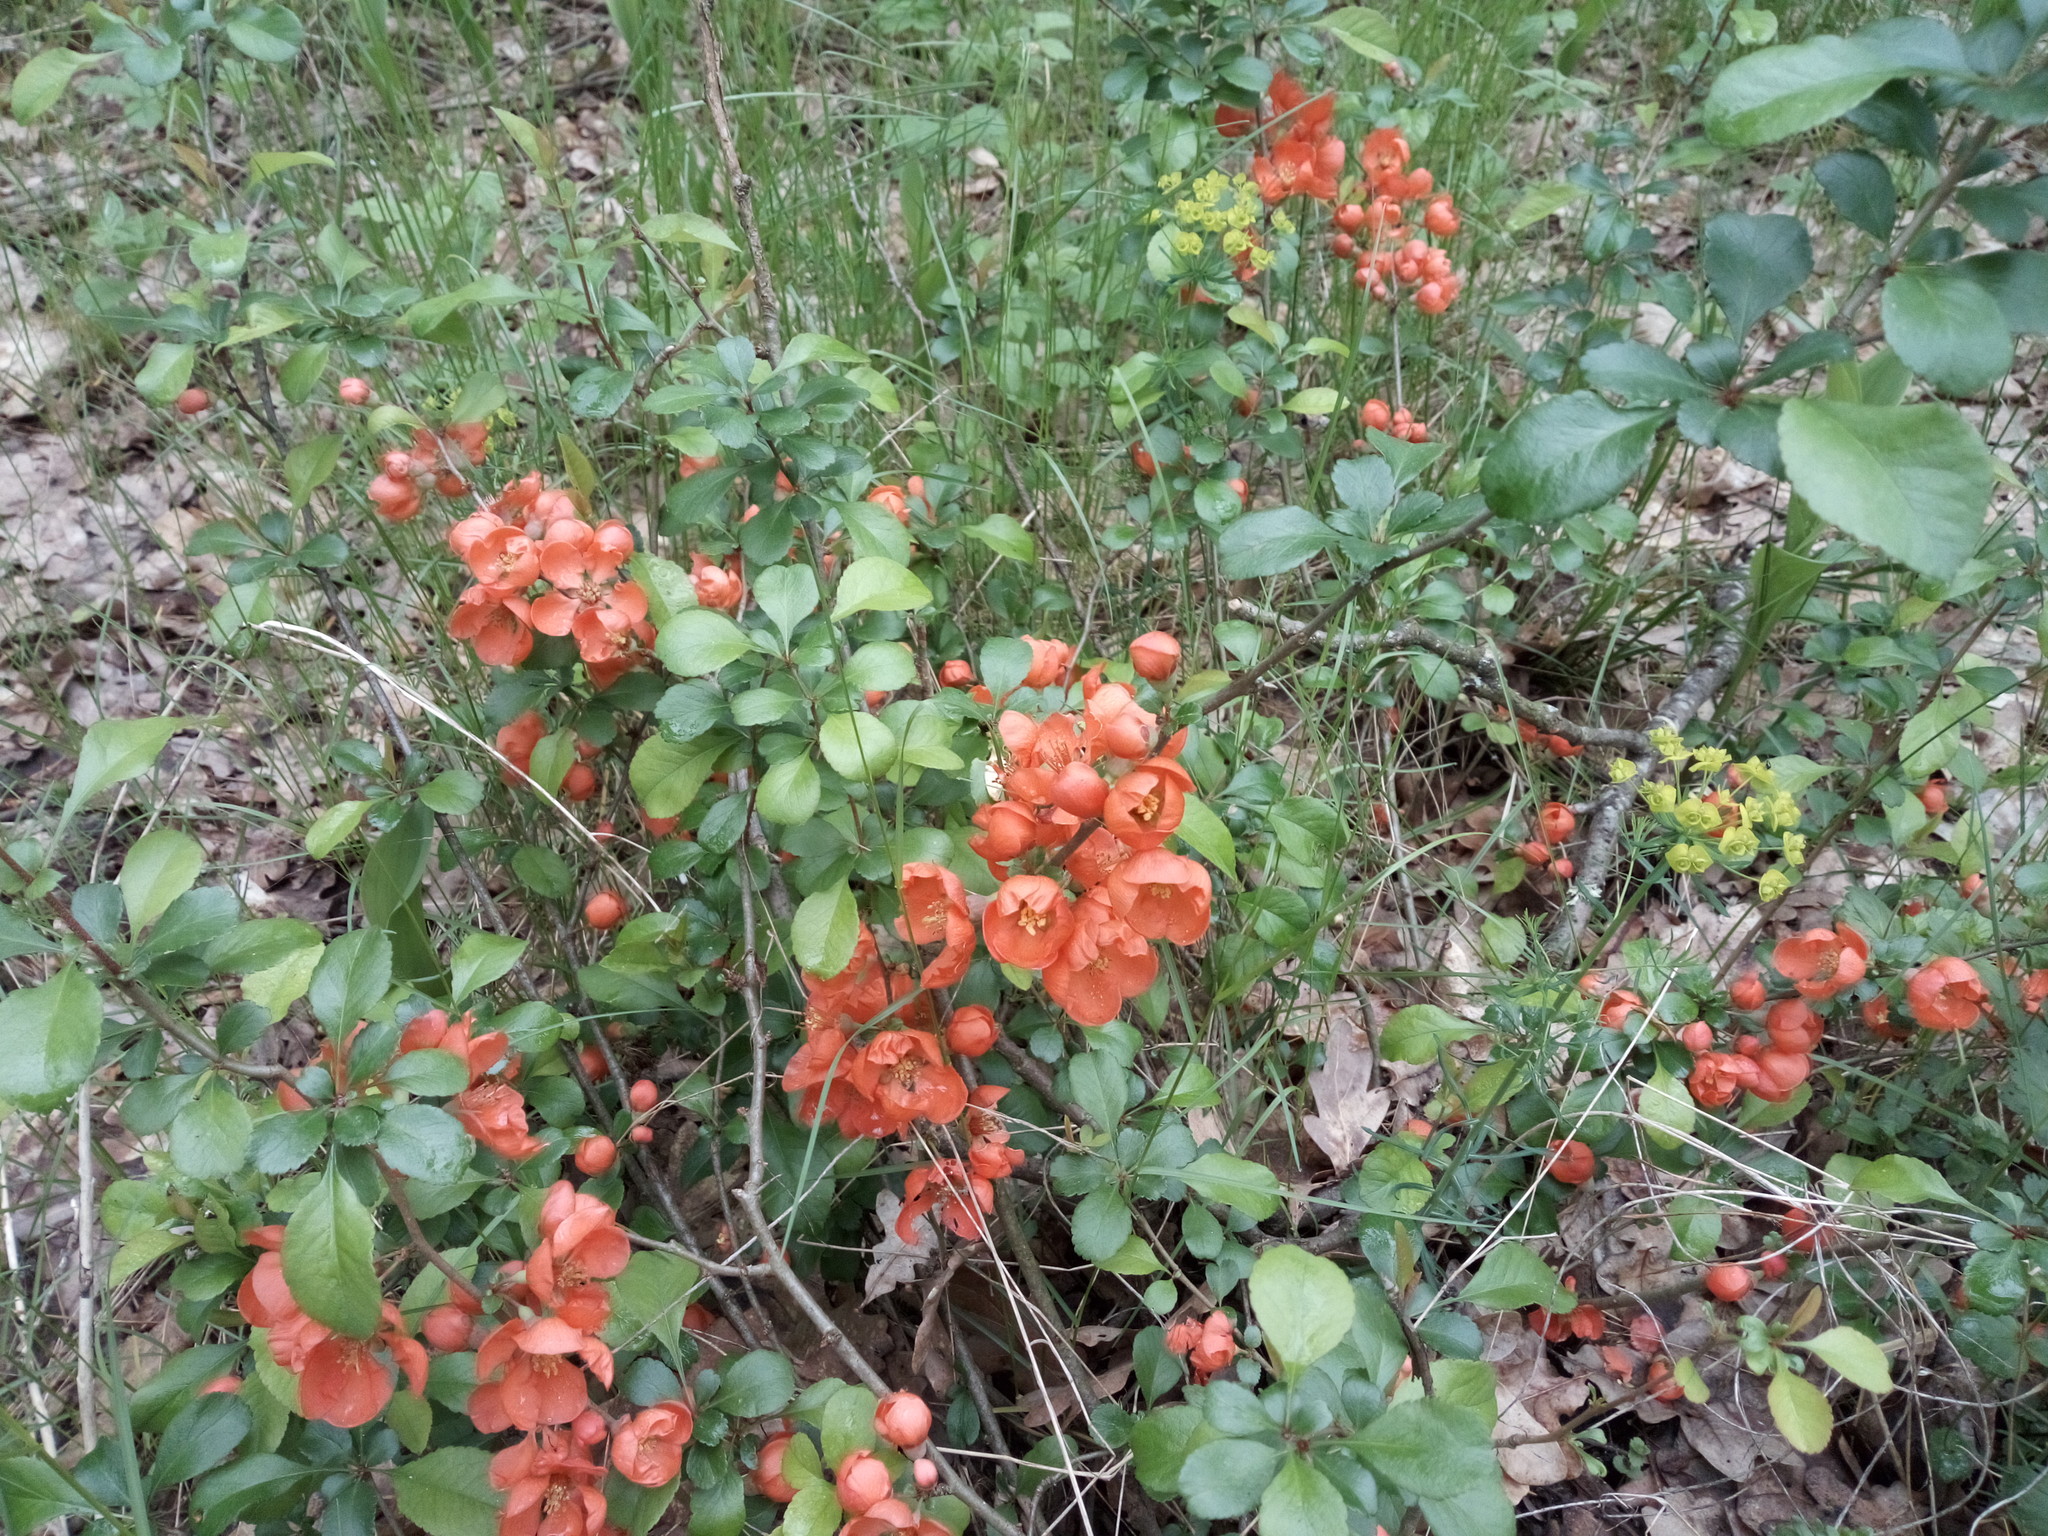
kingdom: Plantae
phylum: Tracheophyta
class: Magnoliopsida
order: Rosales
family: Rosaceae
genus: Chaenomeles
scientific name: Chaenomeles japonica
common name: Japanese quince
